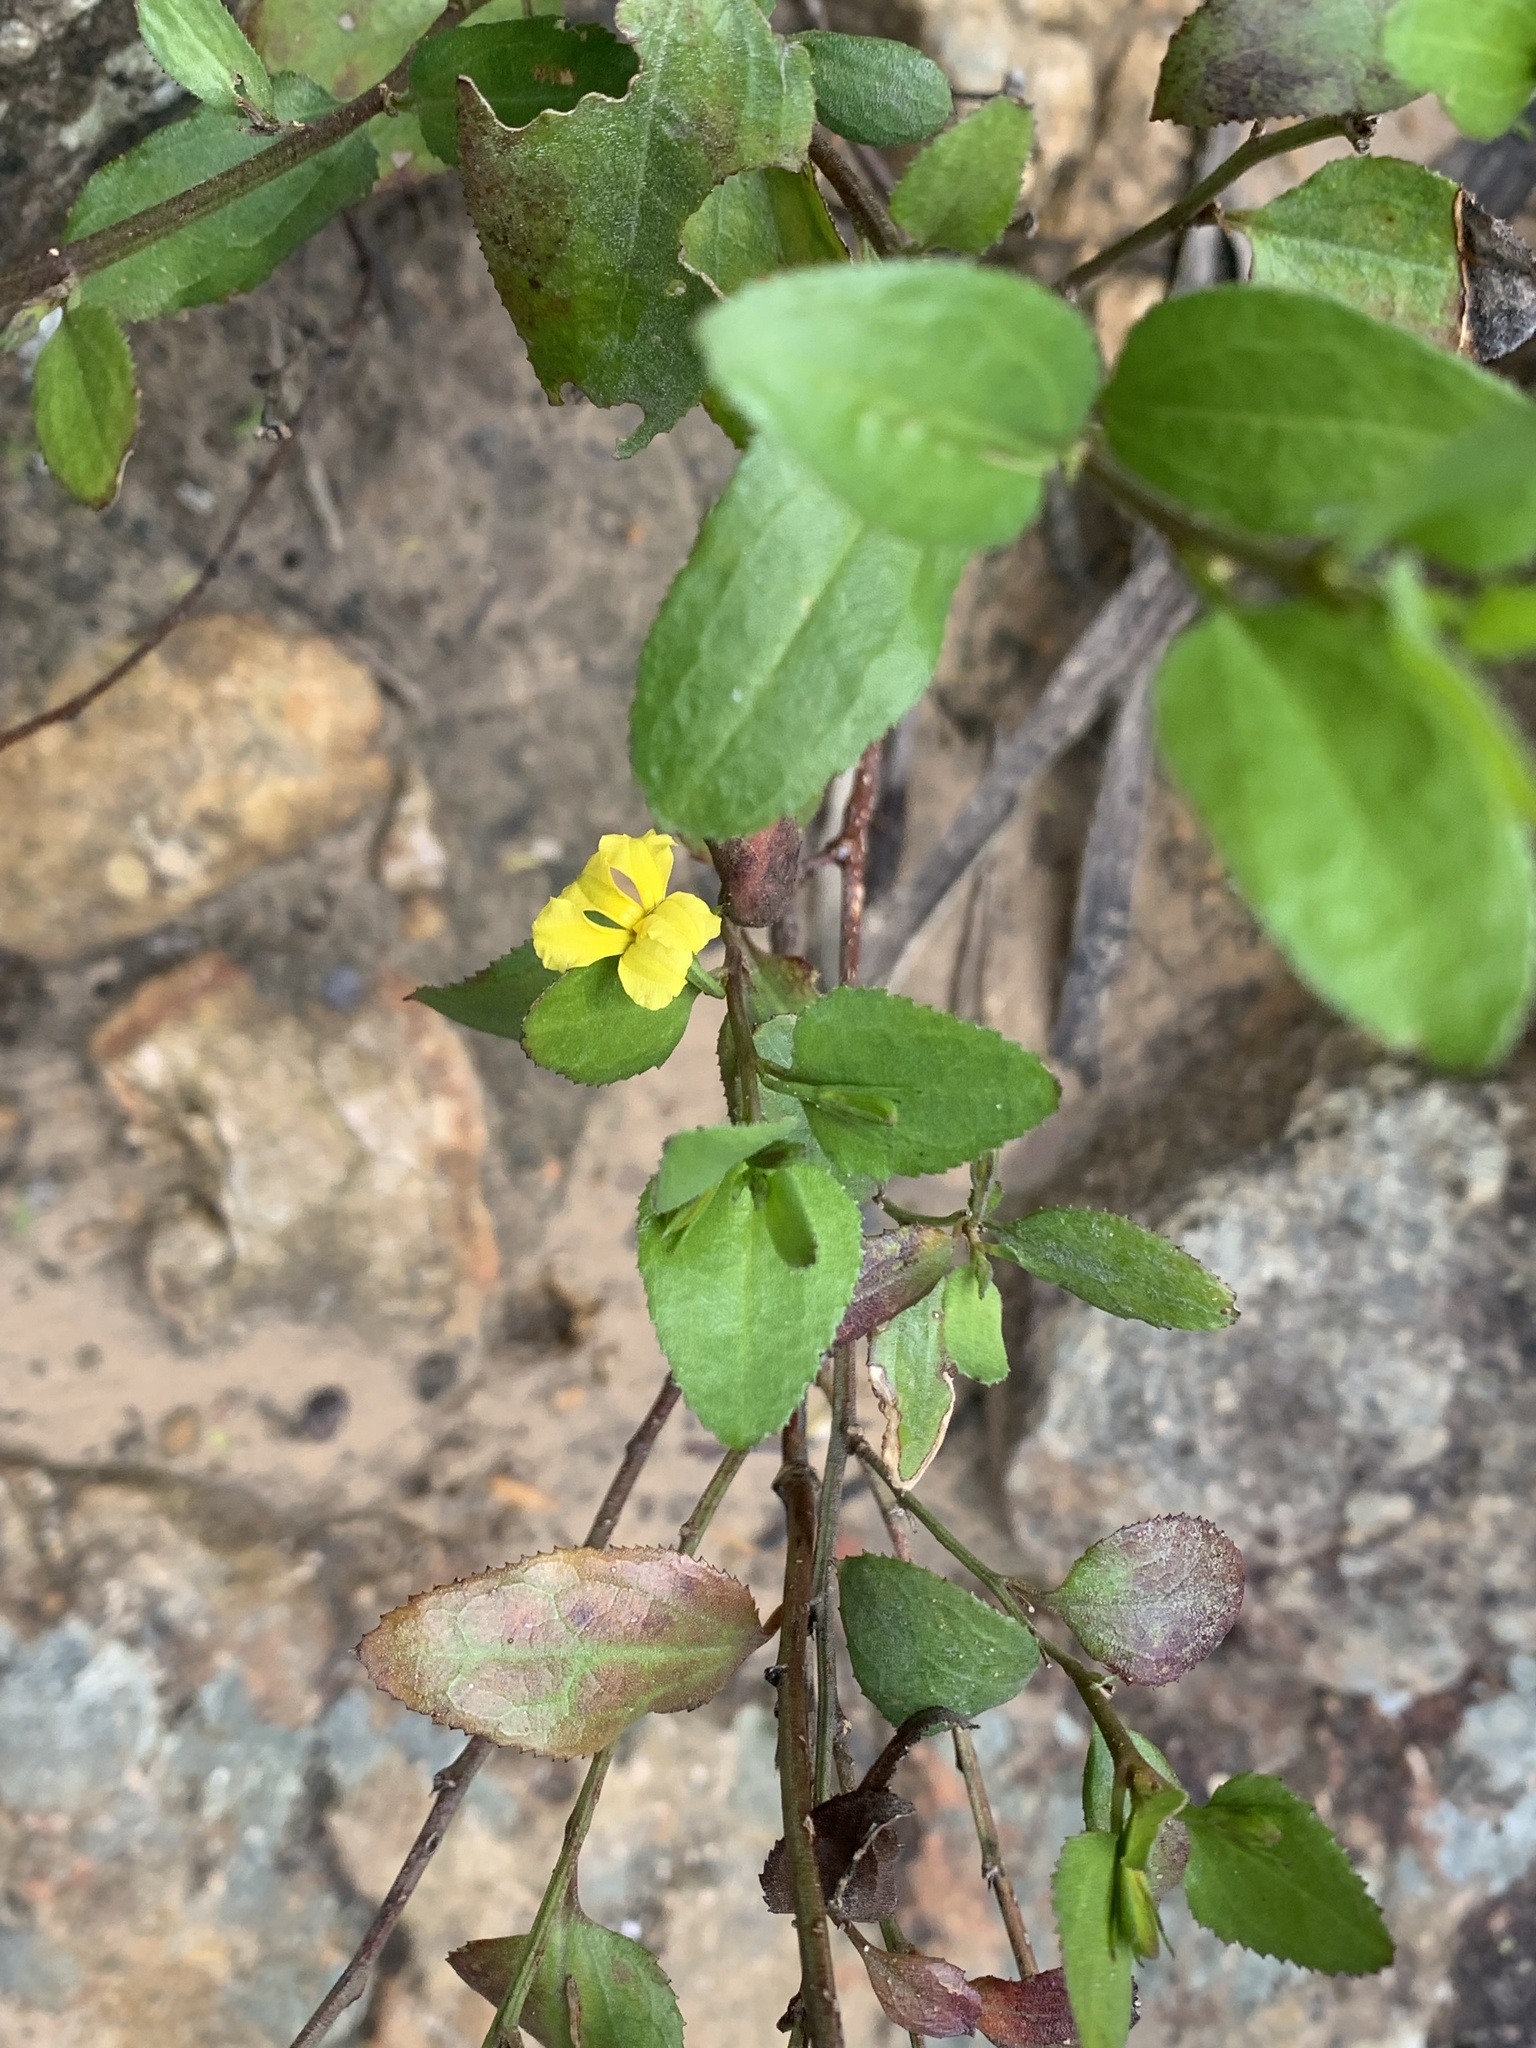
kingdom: Plantae
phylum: Tracheophyta
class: Magnoliopsida
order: Asterales
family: Goodeniaceae
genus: Goodenia
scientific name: Goodenia ovata
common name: Hop goodenia
